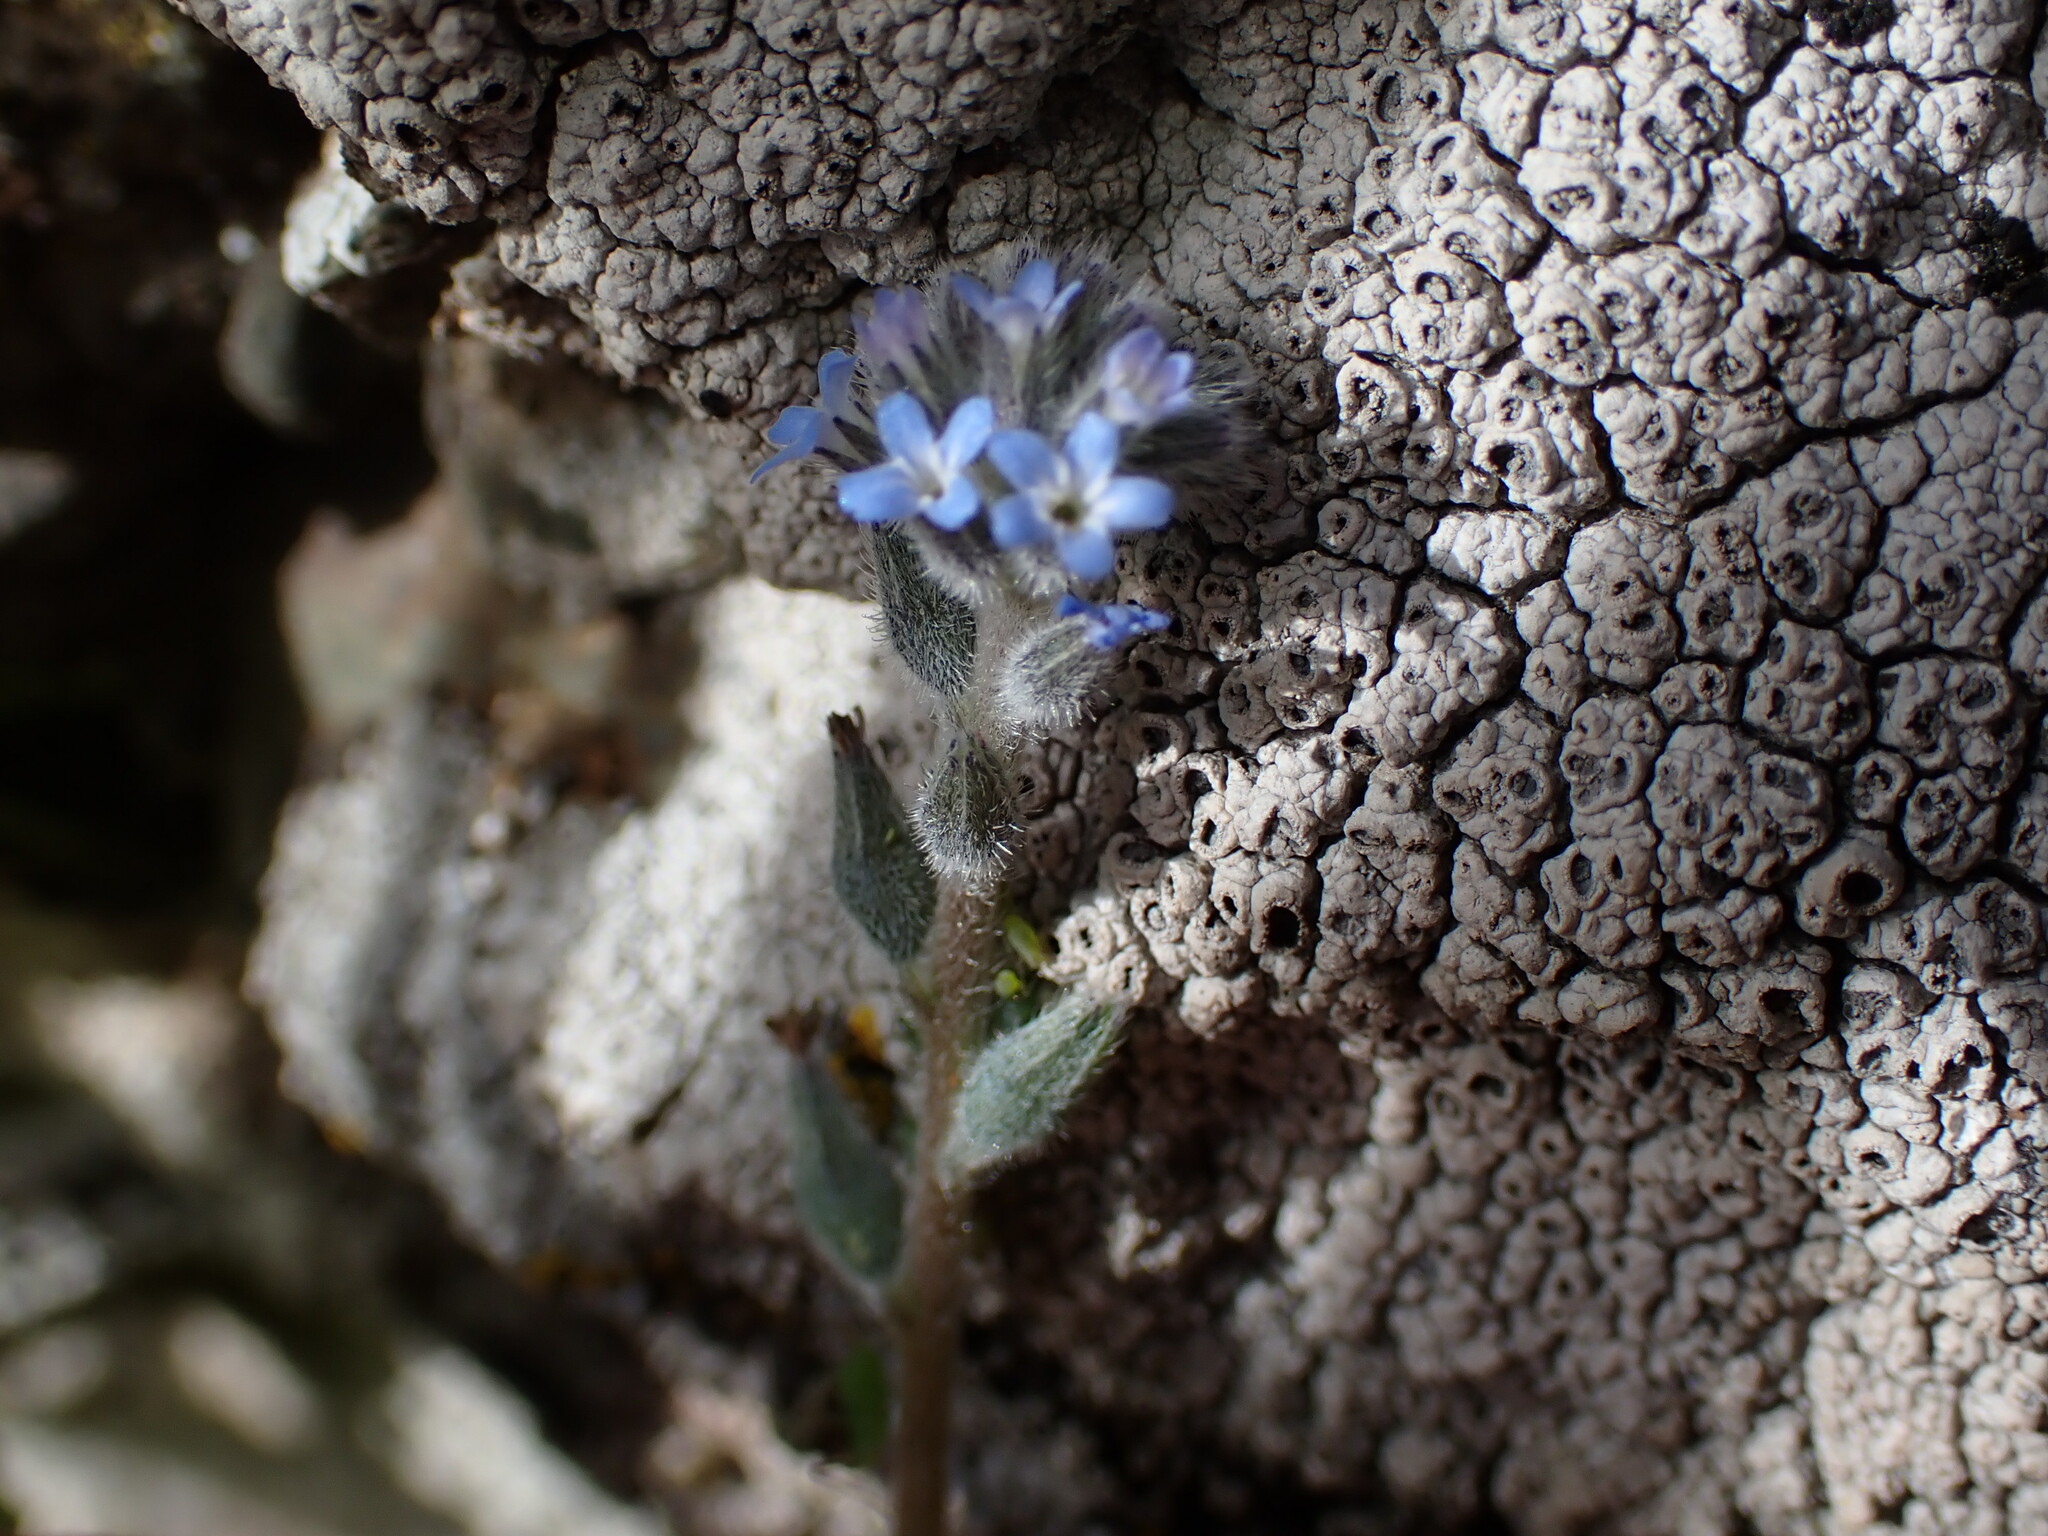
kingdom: Plantae
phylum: Tracheophyta
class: Magnoliopsida
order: Boraginales
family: Boraginaceae
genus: Myosotis
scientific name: Myosotis stricta
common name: Strict forget-me-not
